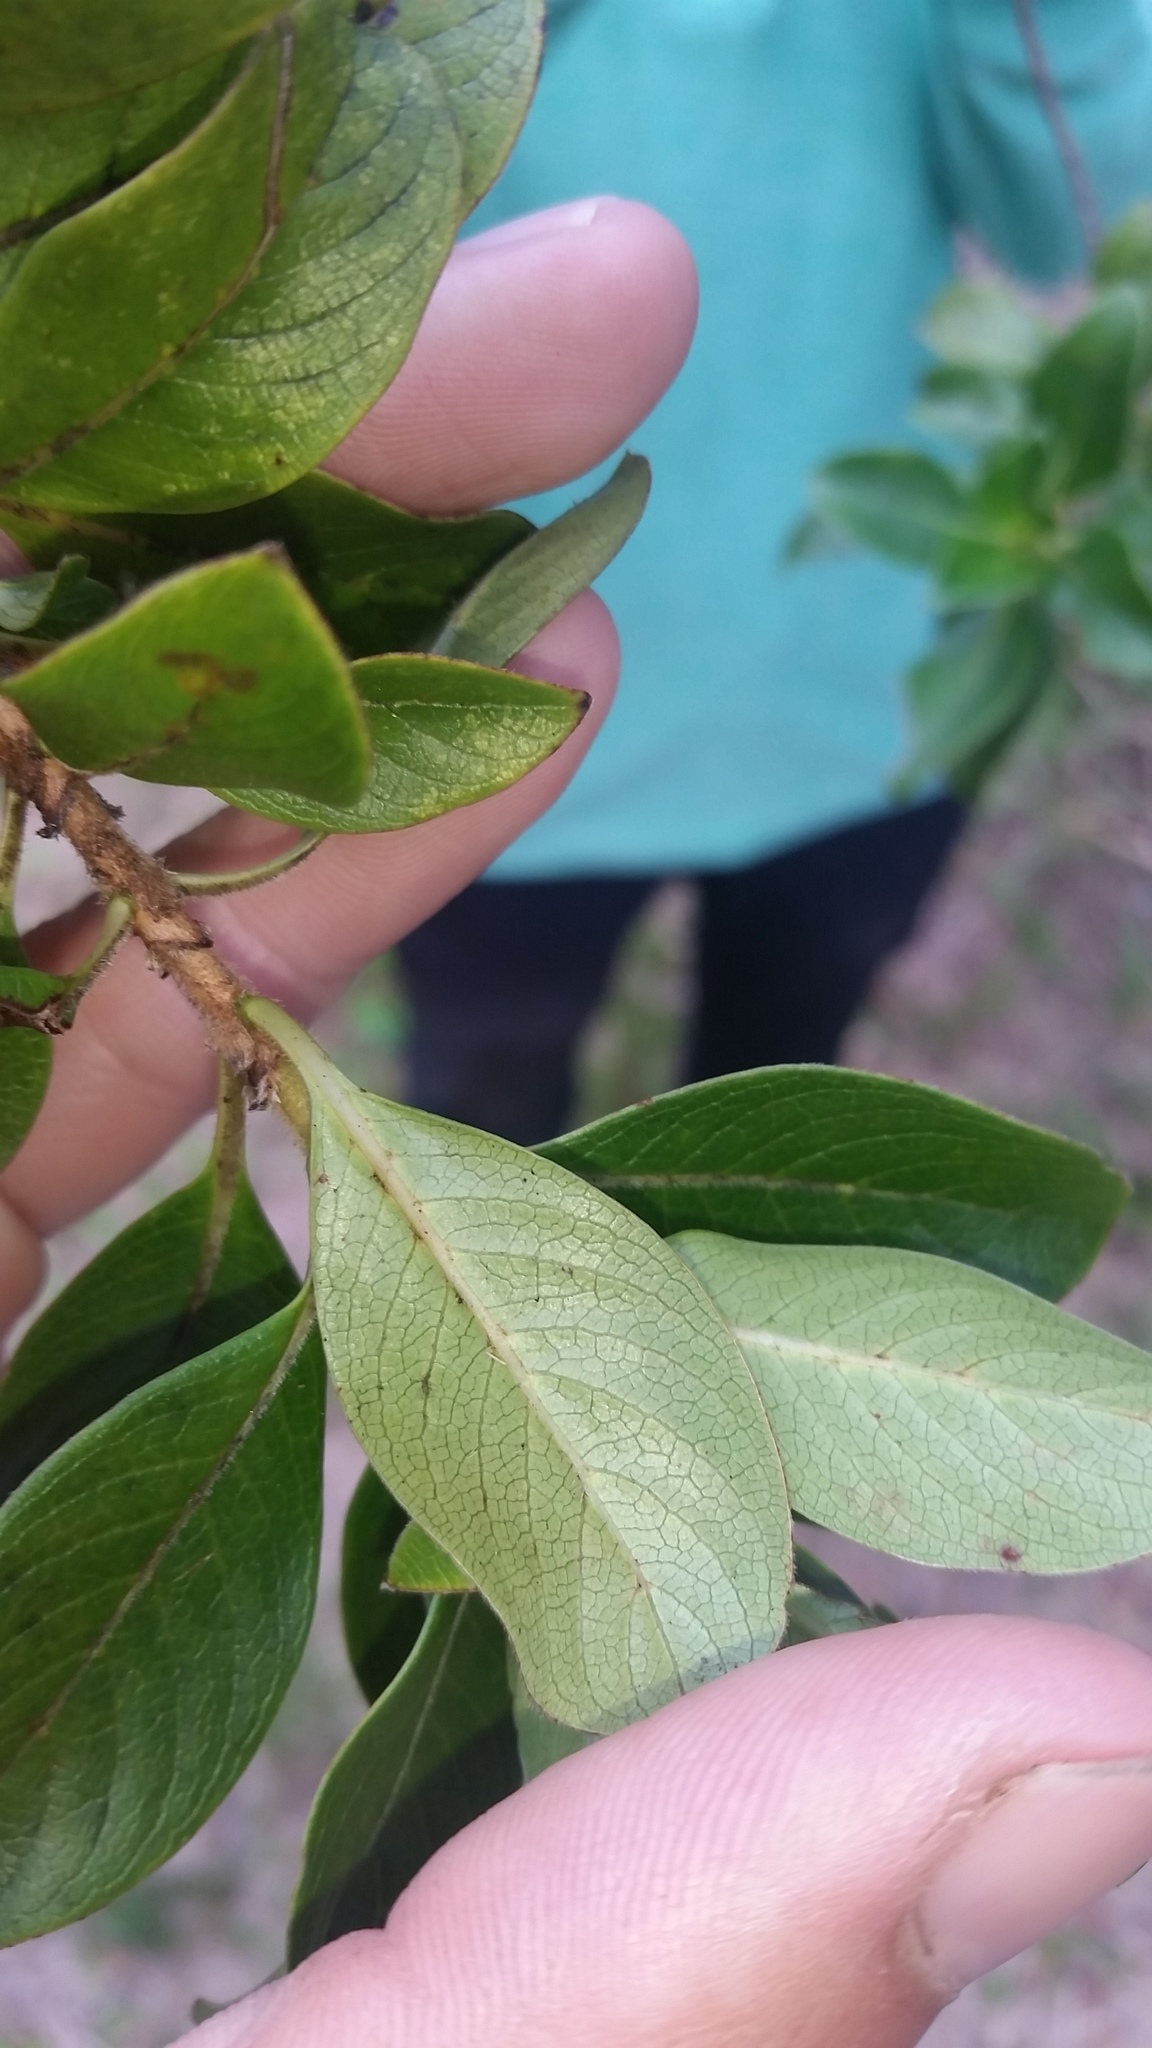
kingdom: Plantae
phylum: Tracheophyta
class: Magnoliopsida
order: Gentianales
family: Rubiaceae
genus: Coprosma
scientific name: Coprosma ochracea
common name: Maui mirrorplant
